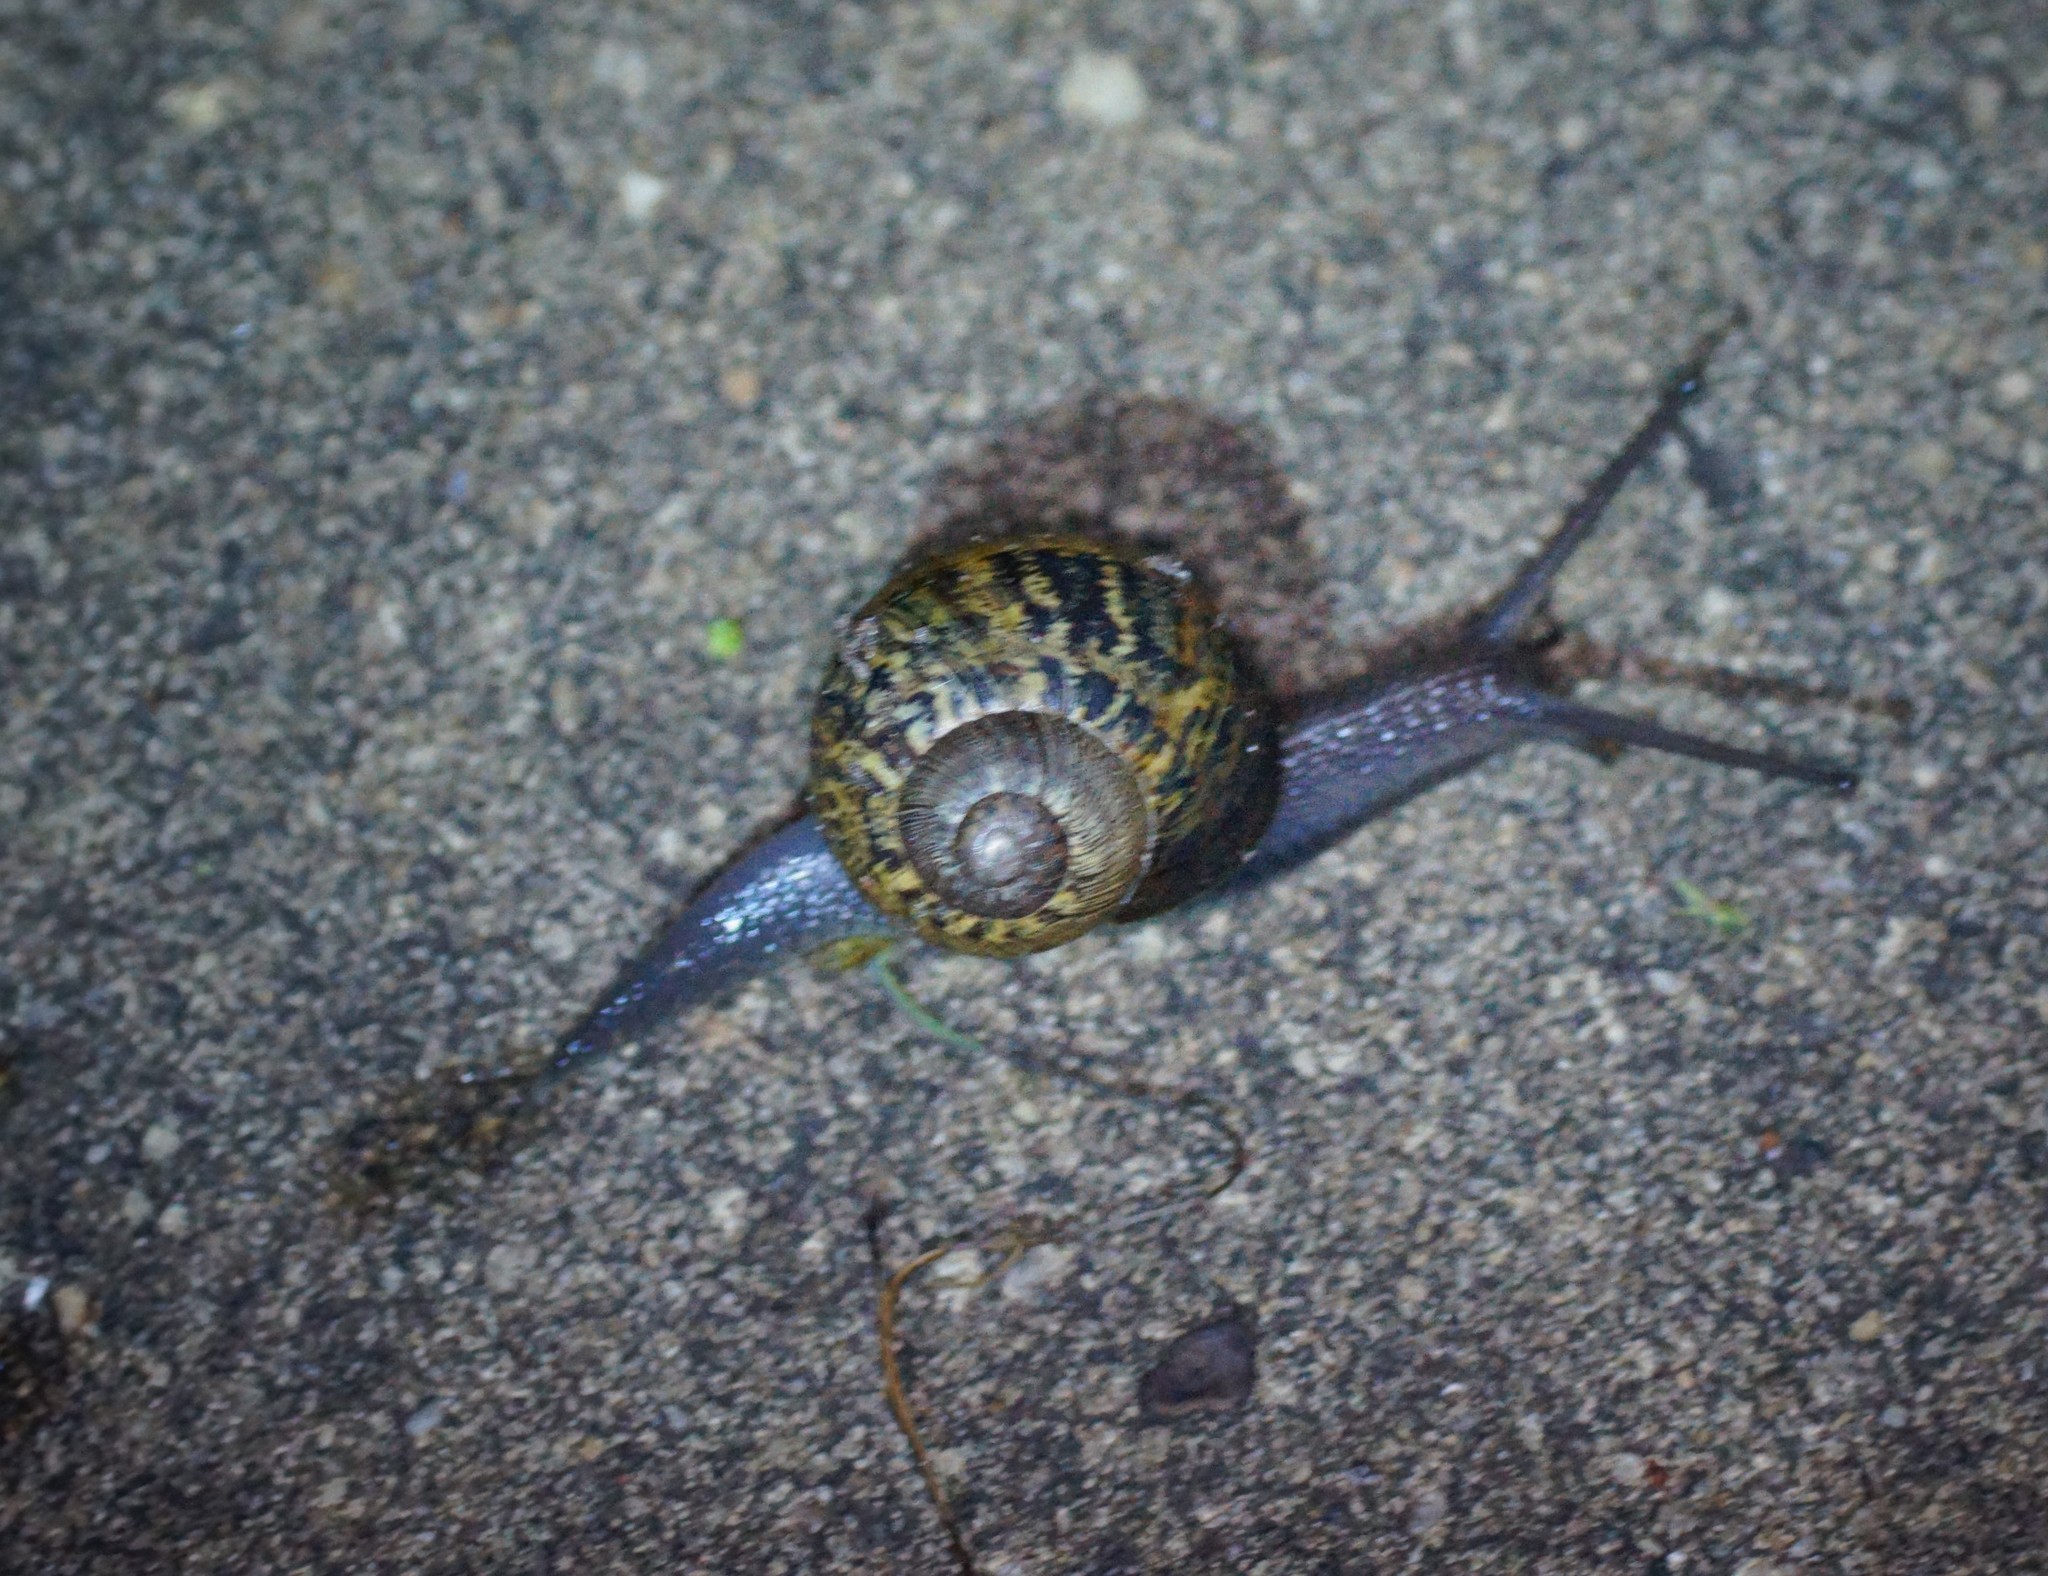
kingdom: Animalia
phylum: Mollusca
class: Gastropoda
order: Stylommatophora
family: Helicidae
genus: Cornu
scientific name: Cornu aspersum
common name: Brown garden snail
